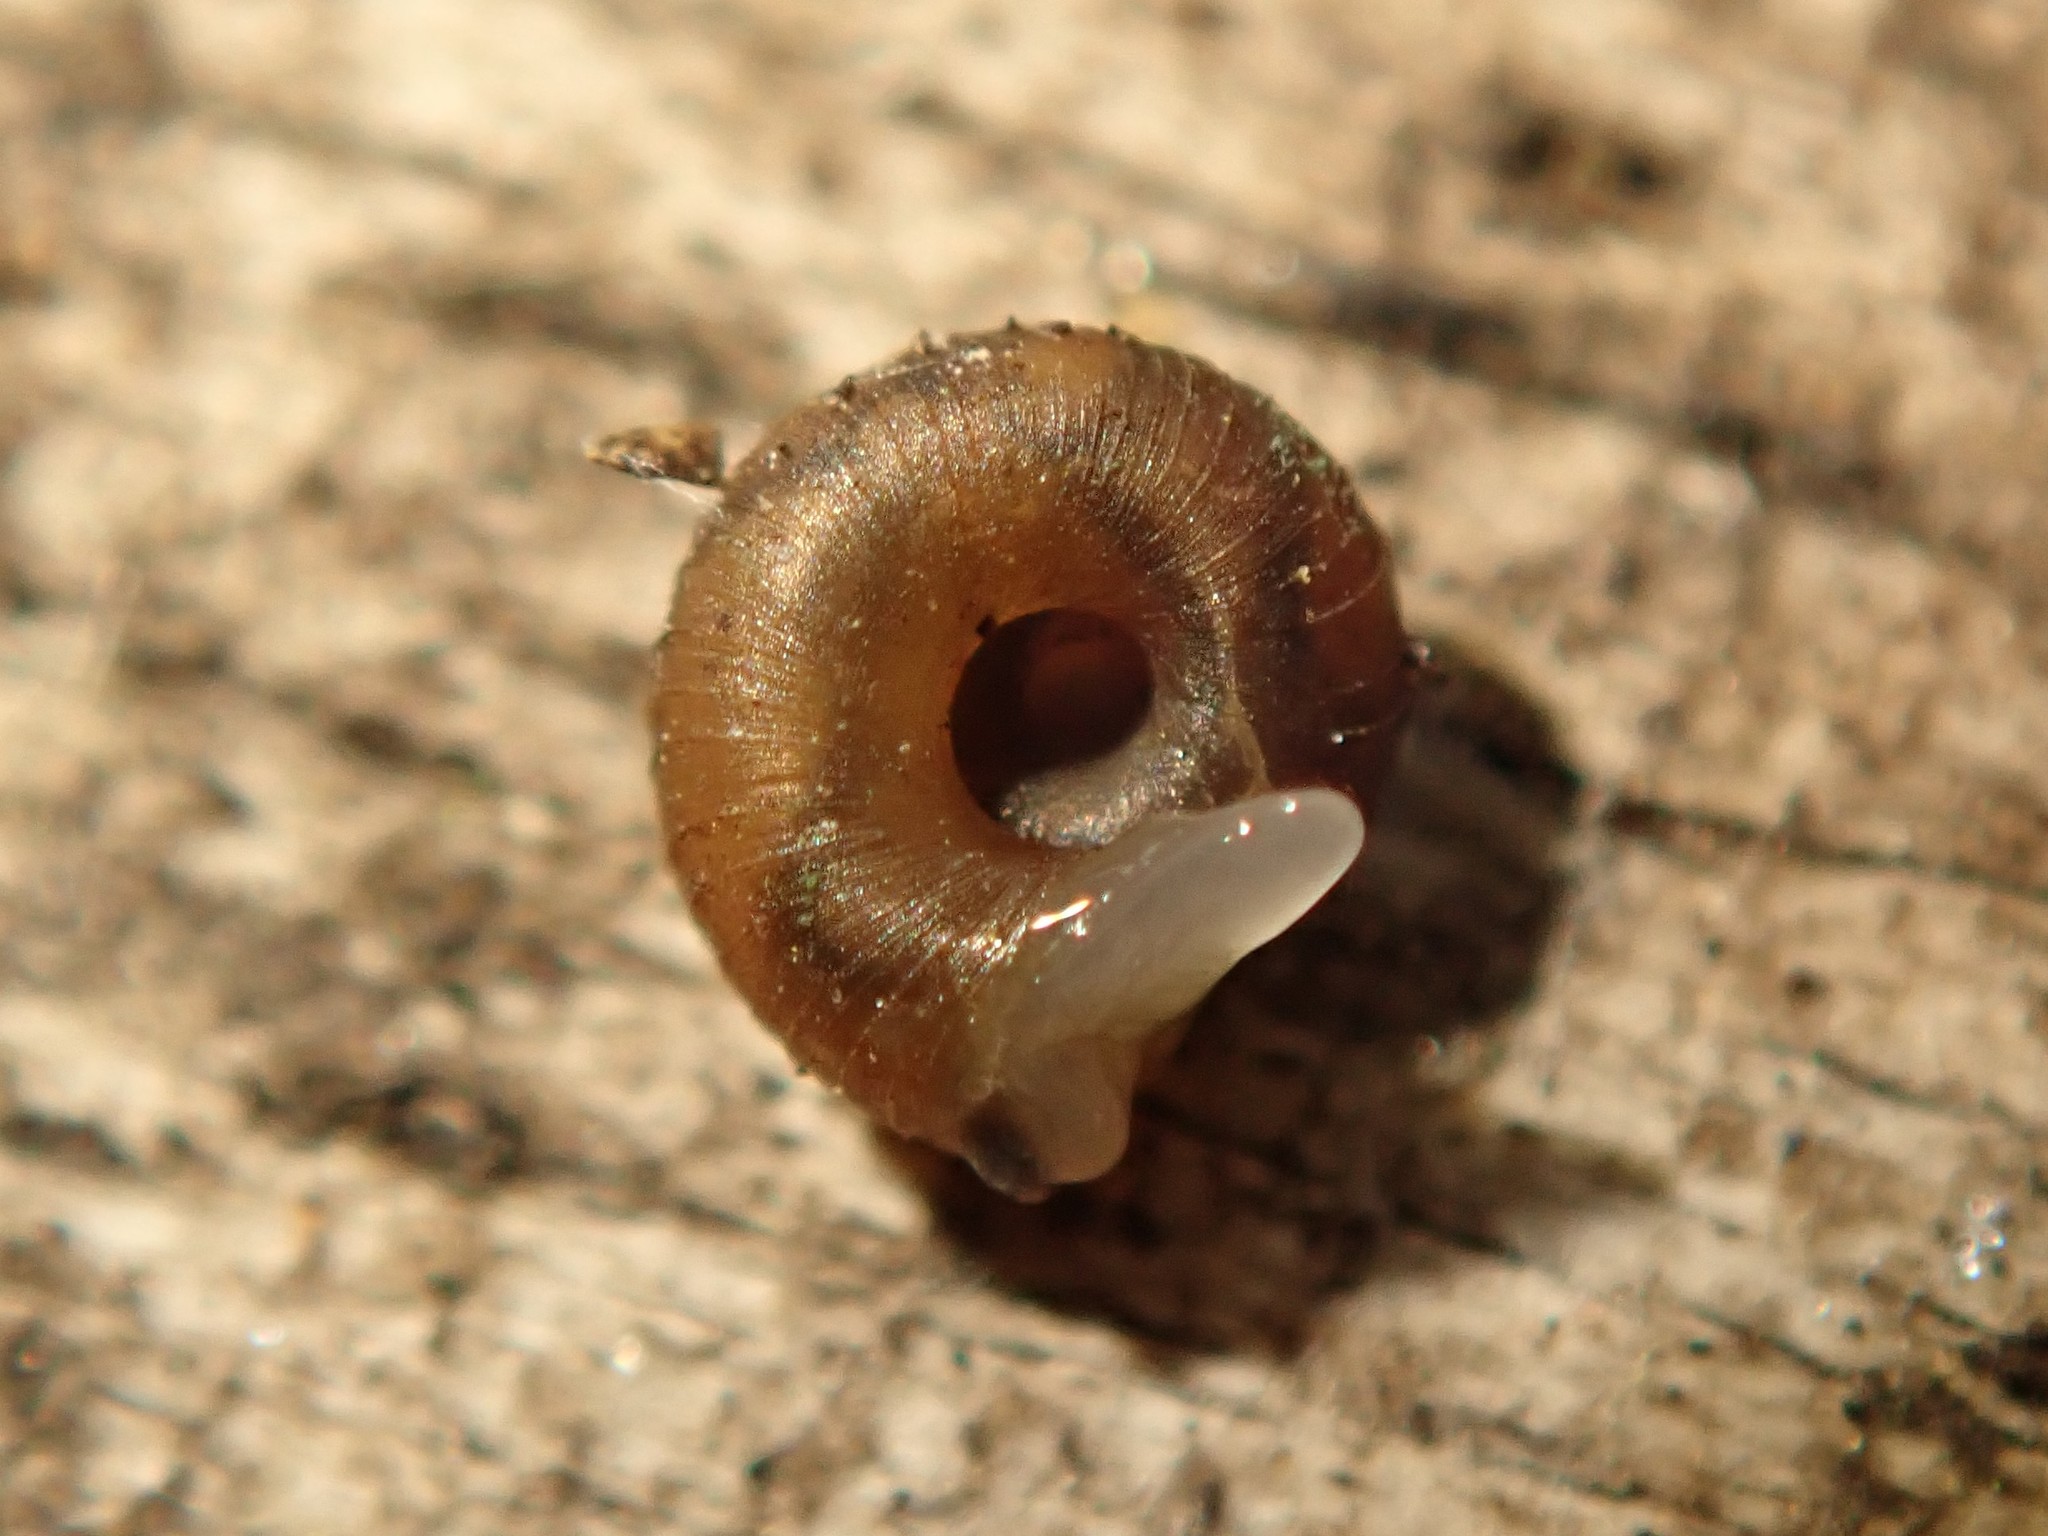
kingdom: Animalia
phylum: Mollusca
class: Gastropoda
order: Stylommatophora
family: Punctidae
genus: Paralaoma
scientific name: Paralaoma servilis
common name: Pinhead spot
